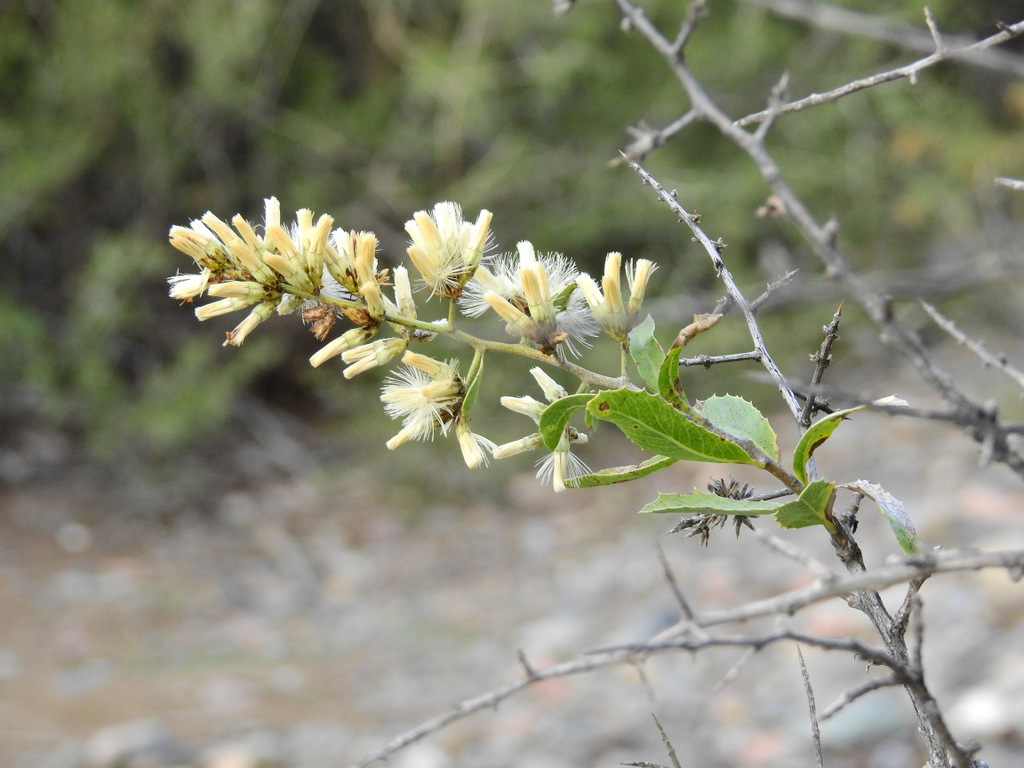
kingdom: Plantae
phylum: Tracheophyta
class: Magnoliopsida
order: Asterales
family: Asteraceae
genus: Proustia
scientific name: Proustia cuneifolia
